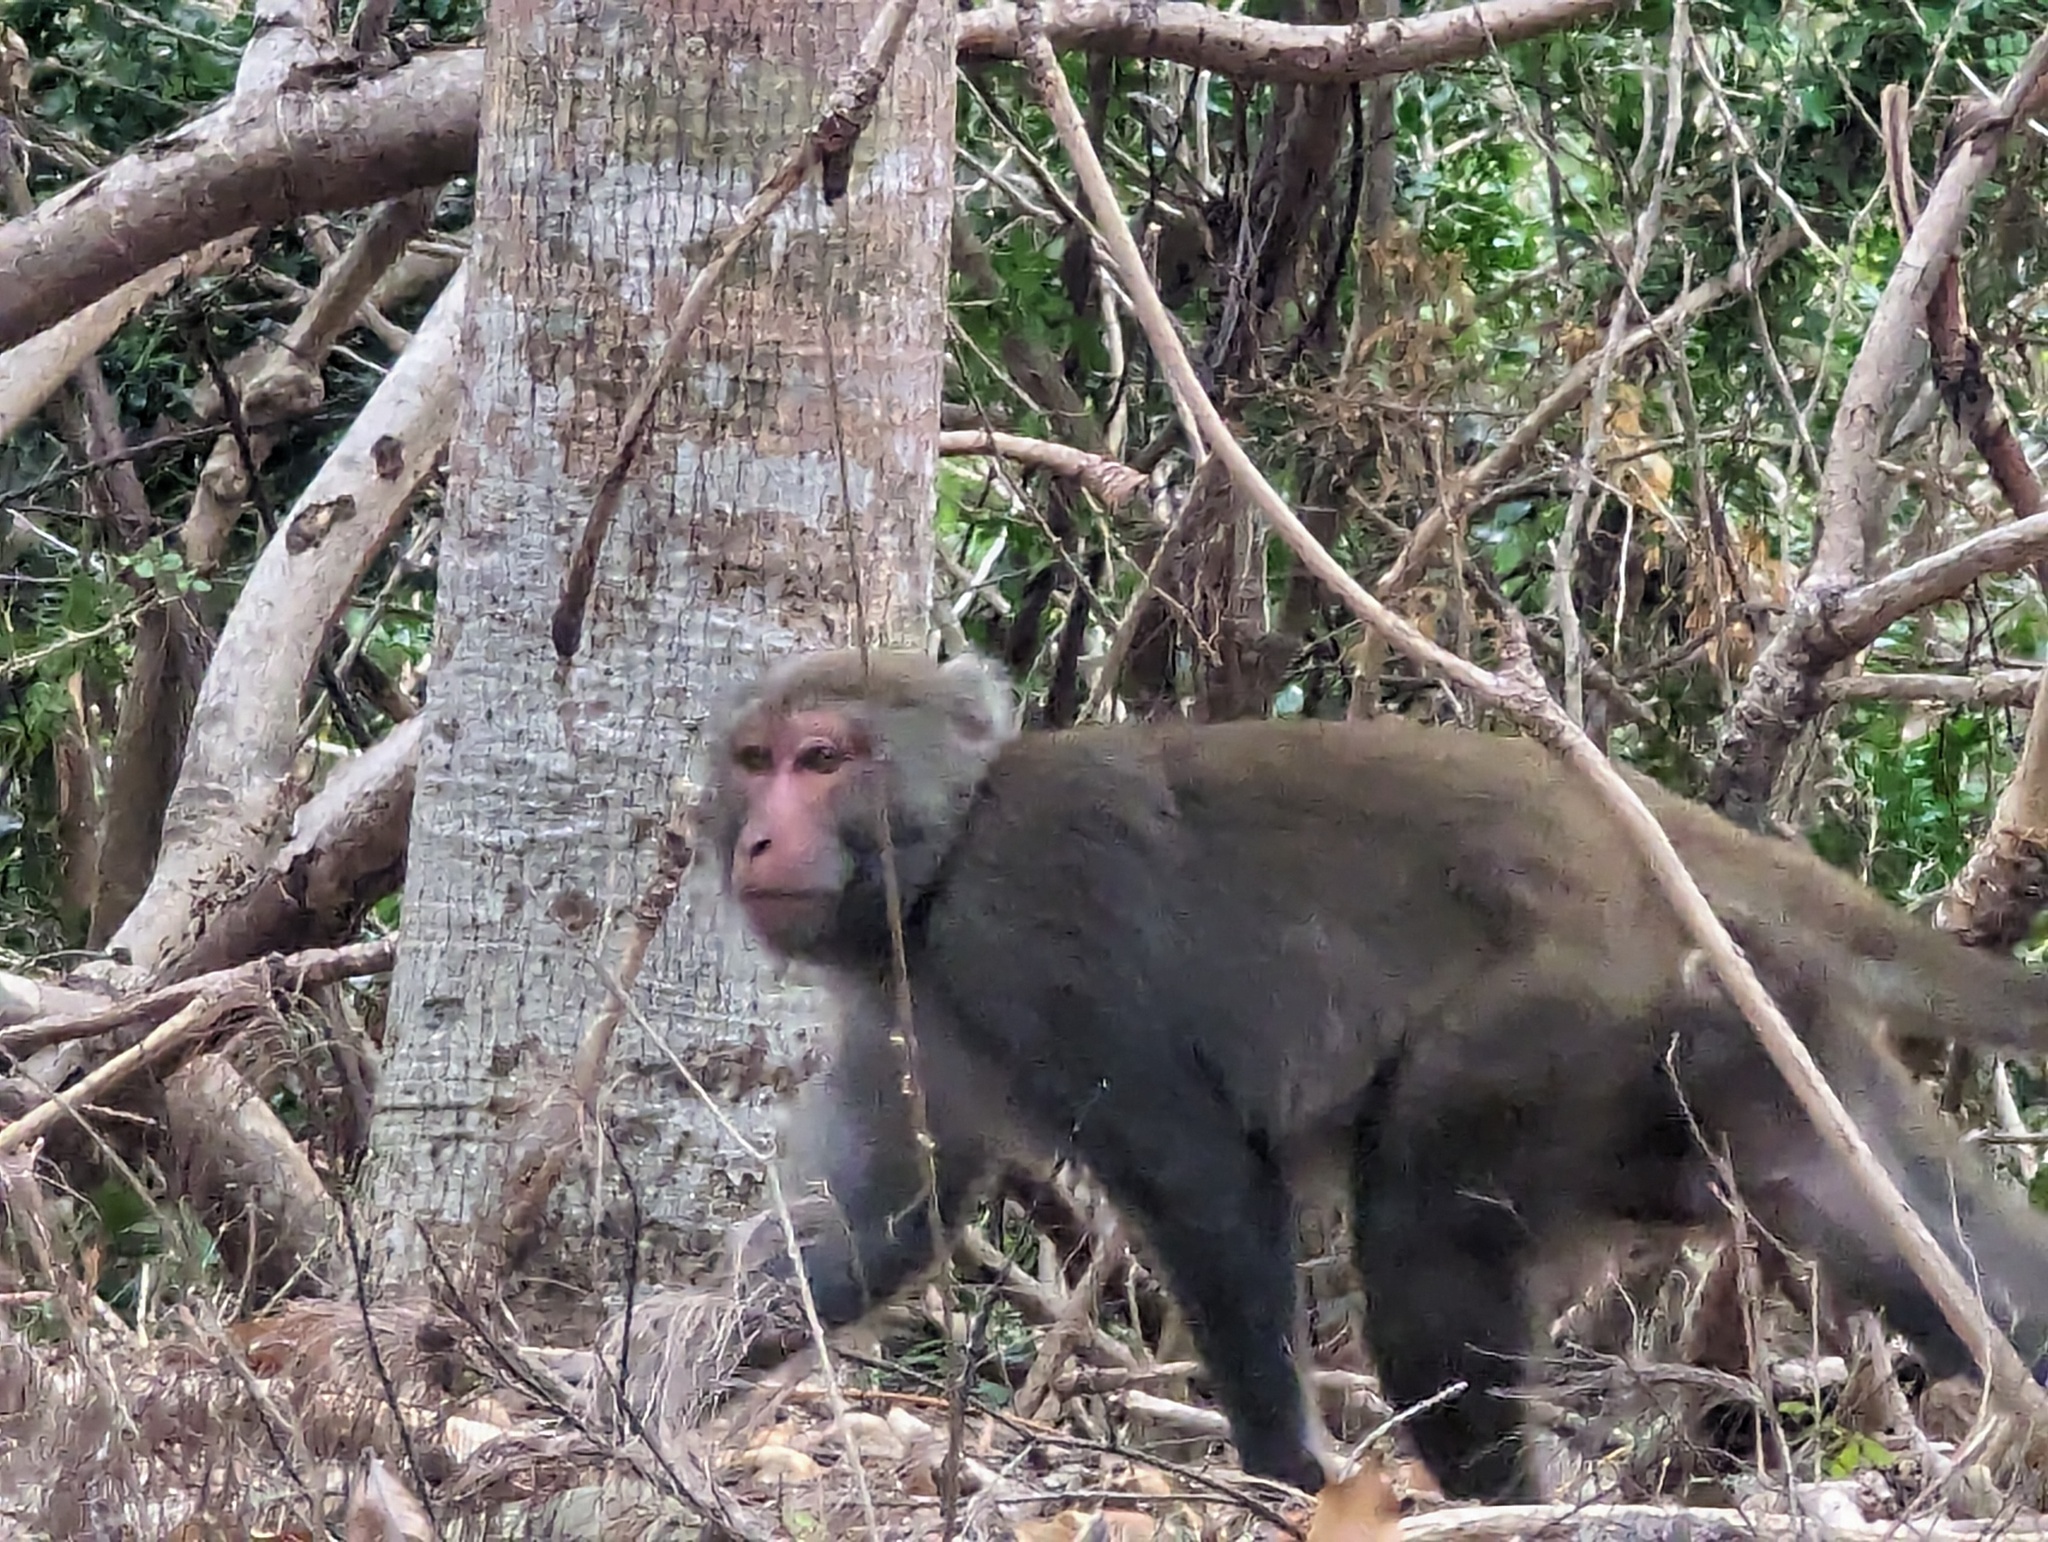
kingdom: Animalia
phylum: Chordata
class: Mammalia
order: Primates
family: Cercopithecidae
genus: Macaca
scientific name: Macaca cyclopis
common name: Formosan rock macaque
